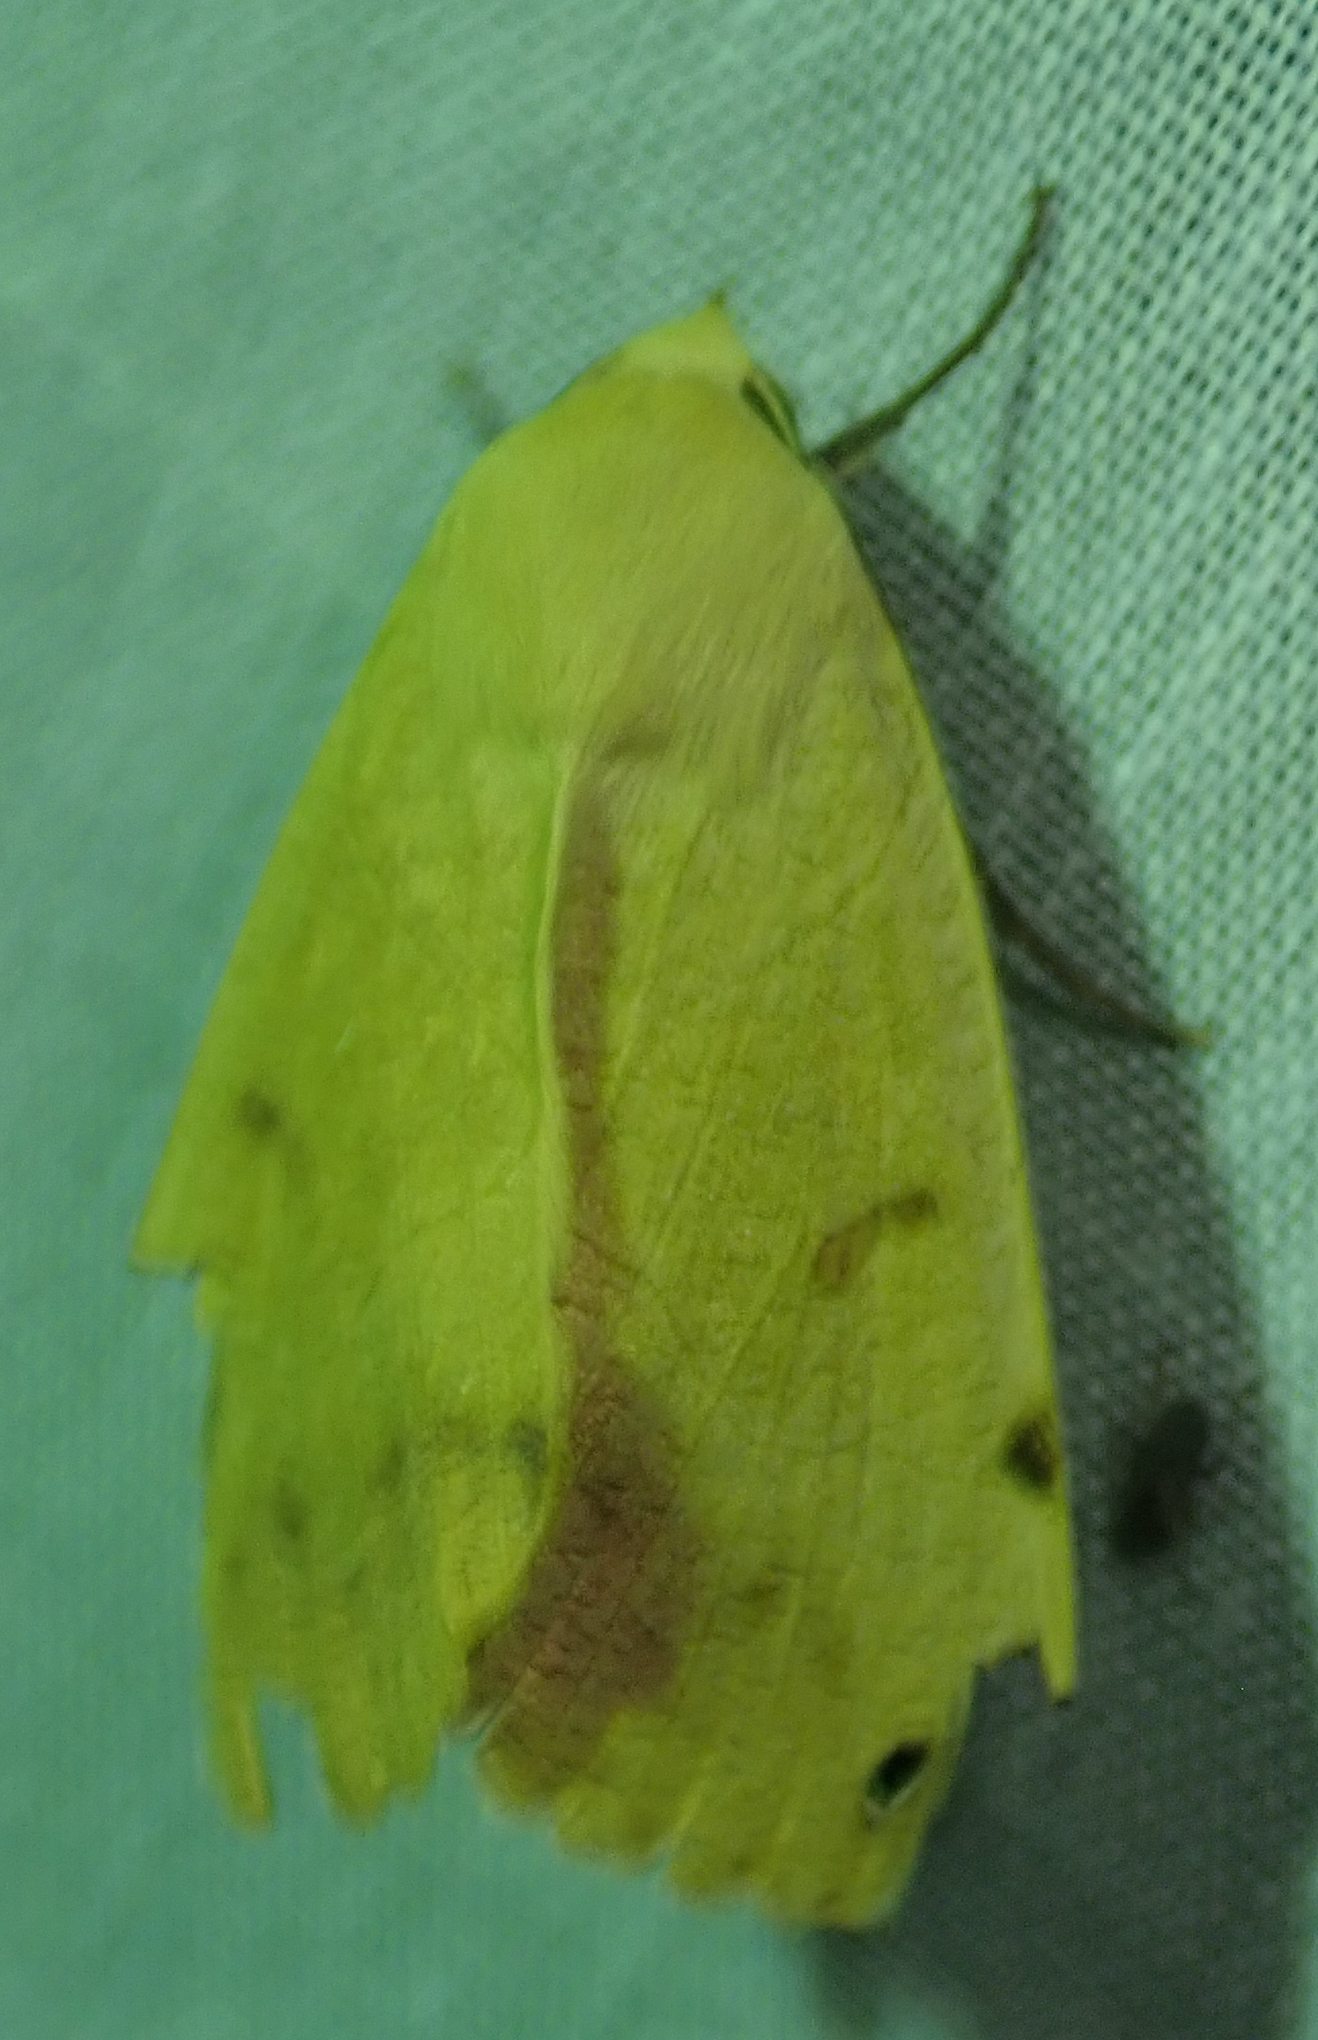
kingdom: Animalia
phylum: Arthropoda
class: Insecta
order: Lepidoptera
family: Erebidae
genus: Ophiusa
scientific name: Ophiusa tirhaca
